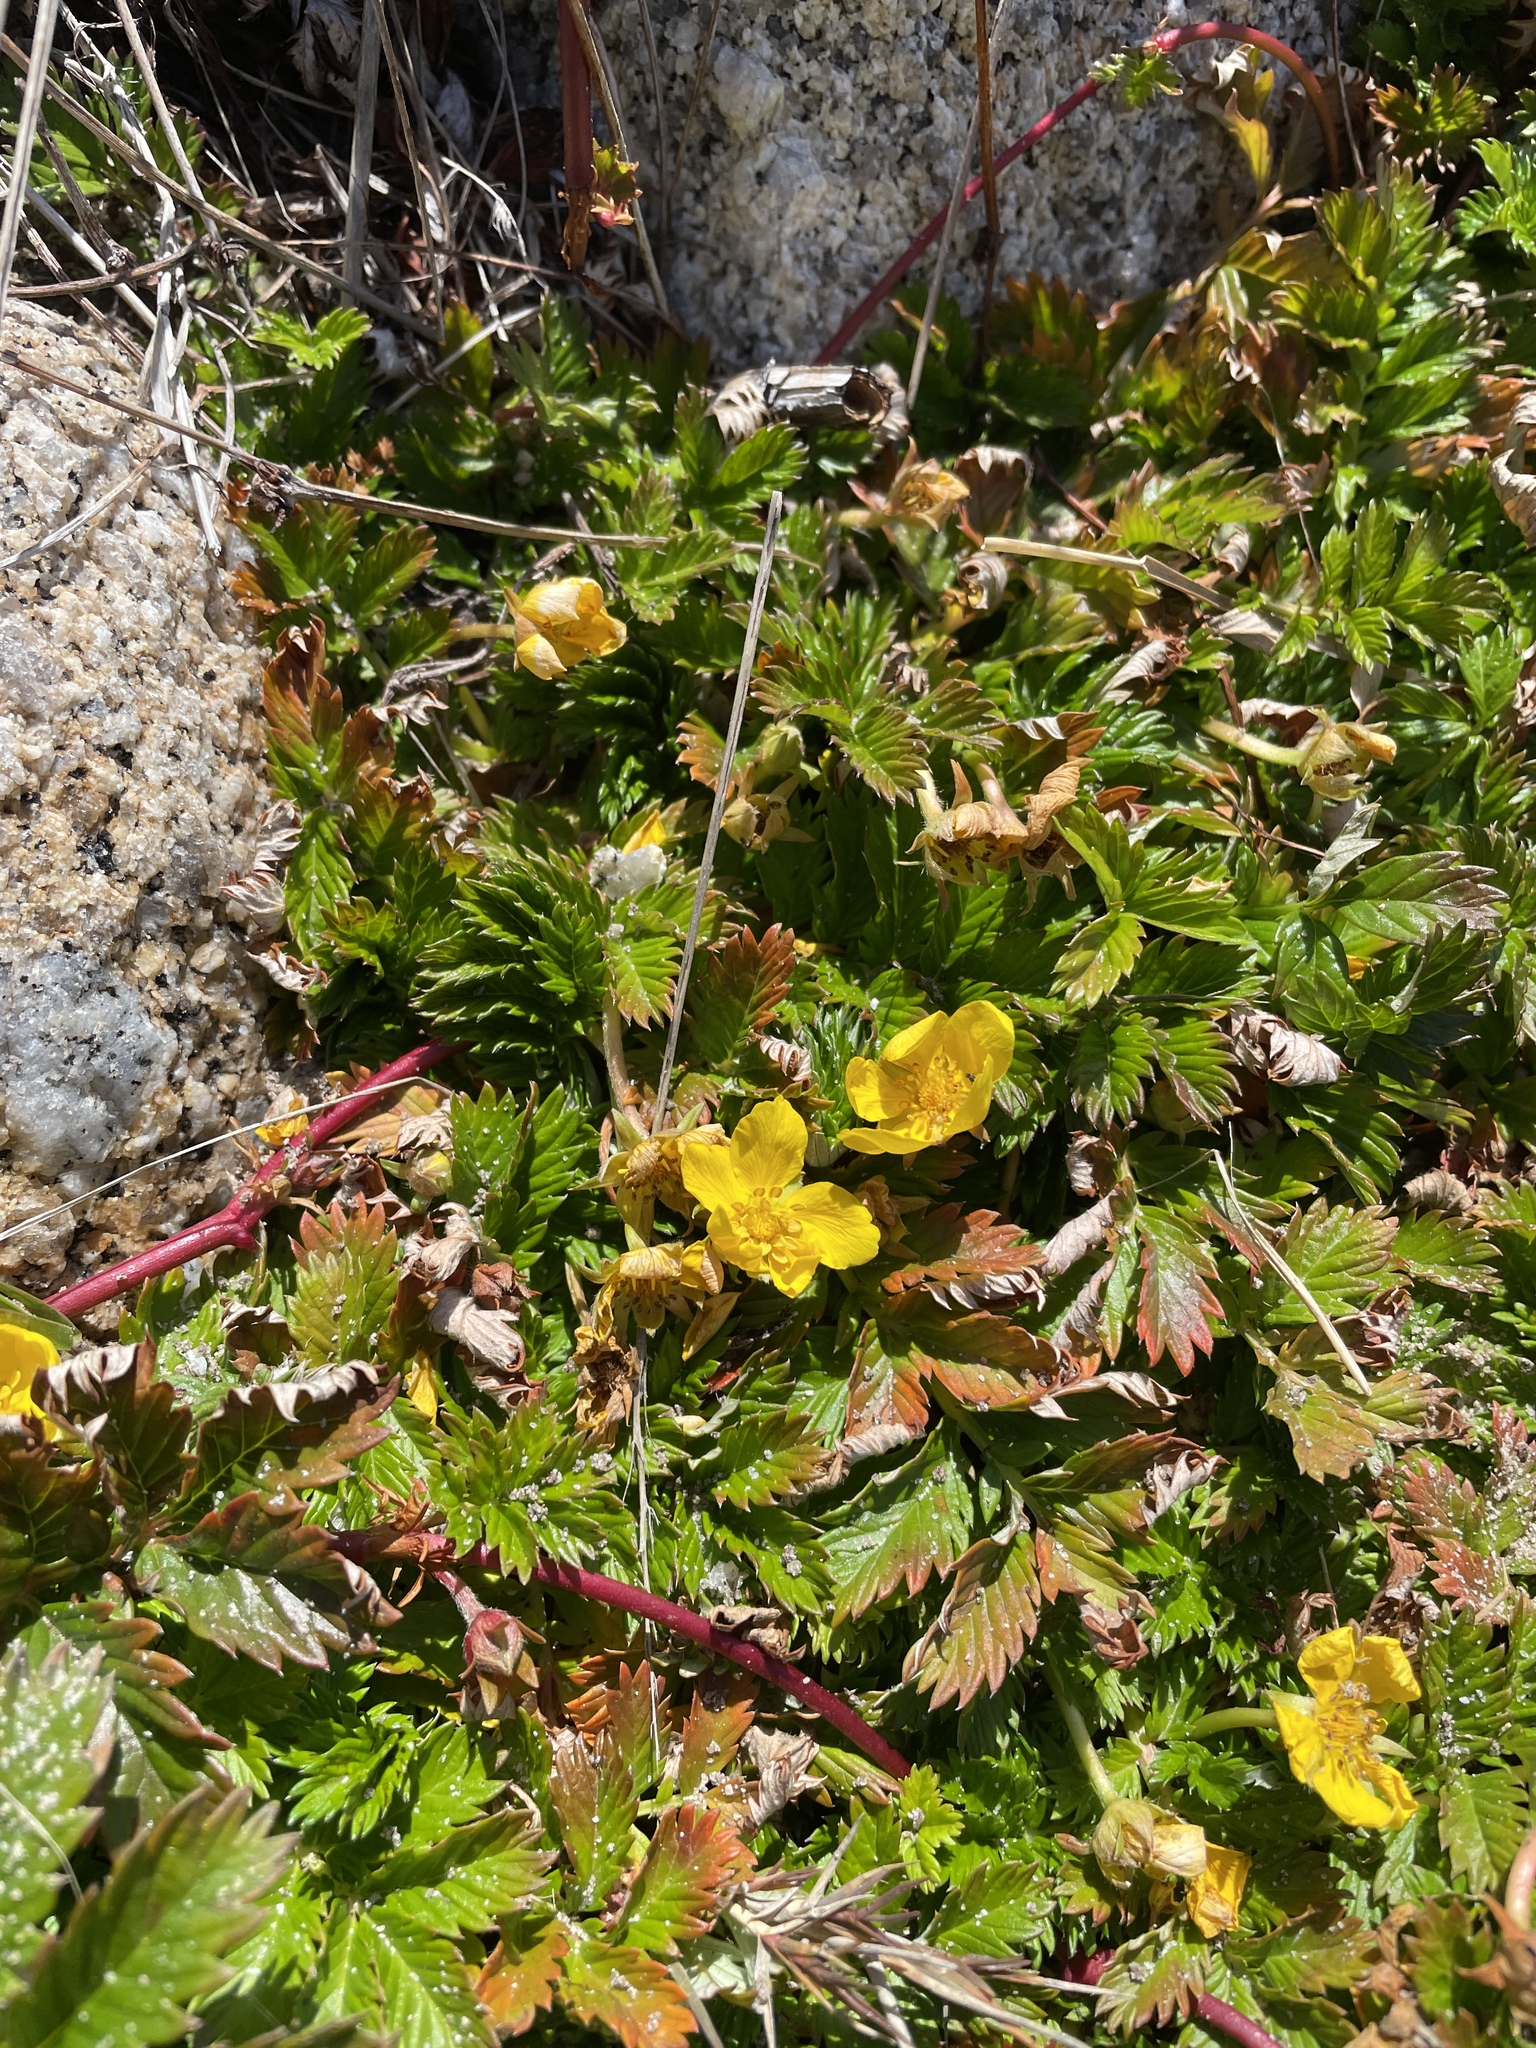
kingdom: Plantae
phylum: Tracheophyta
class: Magnoliopsida
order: Rosales
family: Rosaceae
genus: Argentina
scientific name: Argentina anserina
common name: Common silverweed
